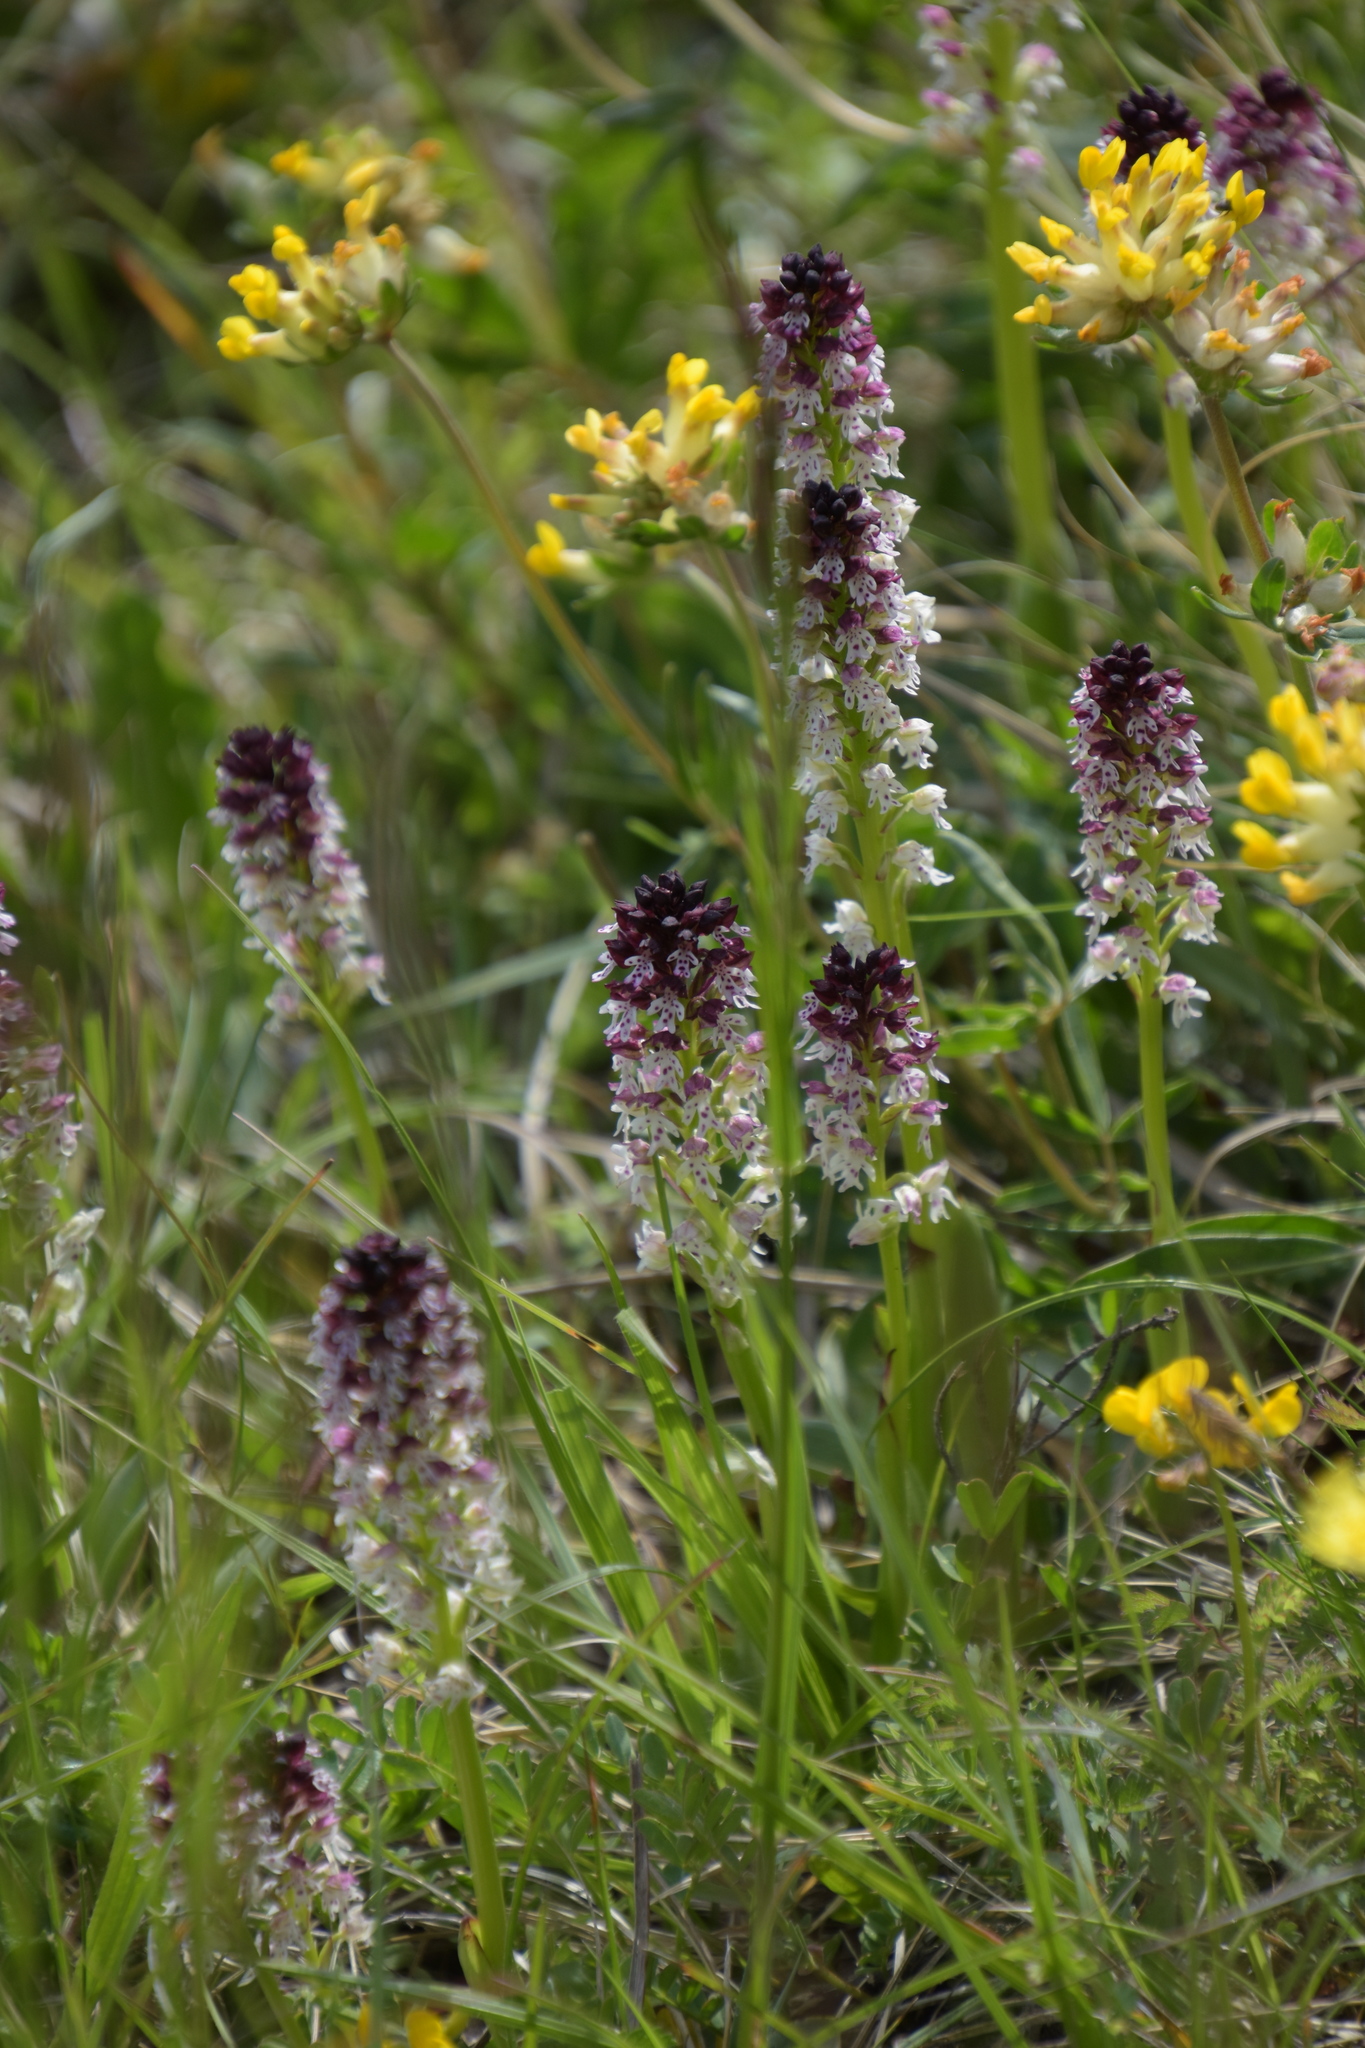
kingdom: Plantae
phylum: Tracheophyta
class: Liliopsida
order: Asparagales
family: Orchidaceae
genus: Neotinea
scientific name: Neotinea ustulata
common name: Burnt orchid
